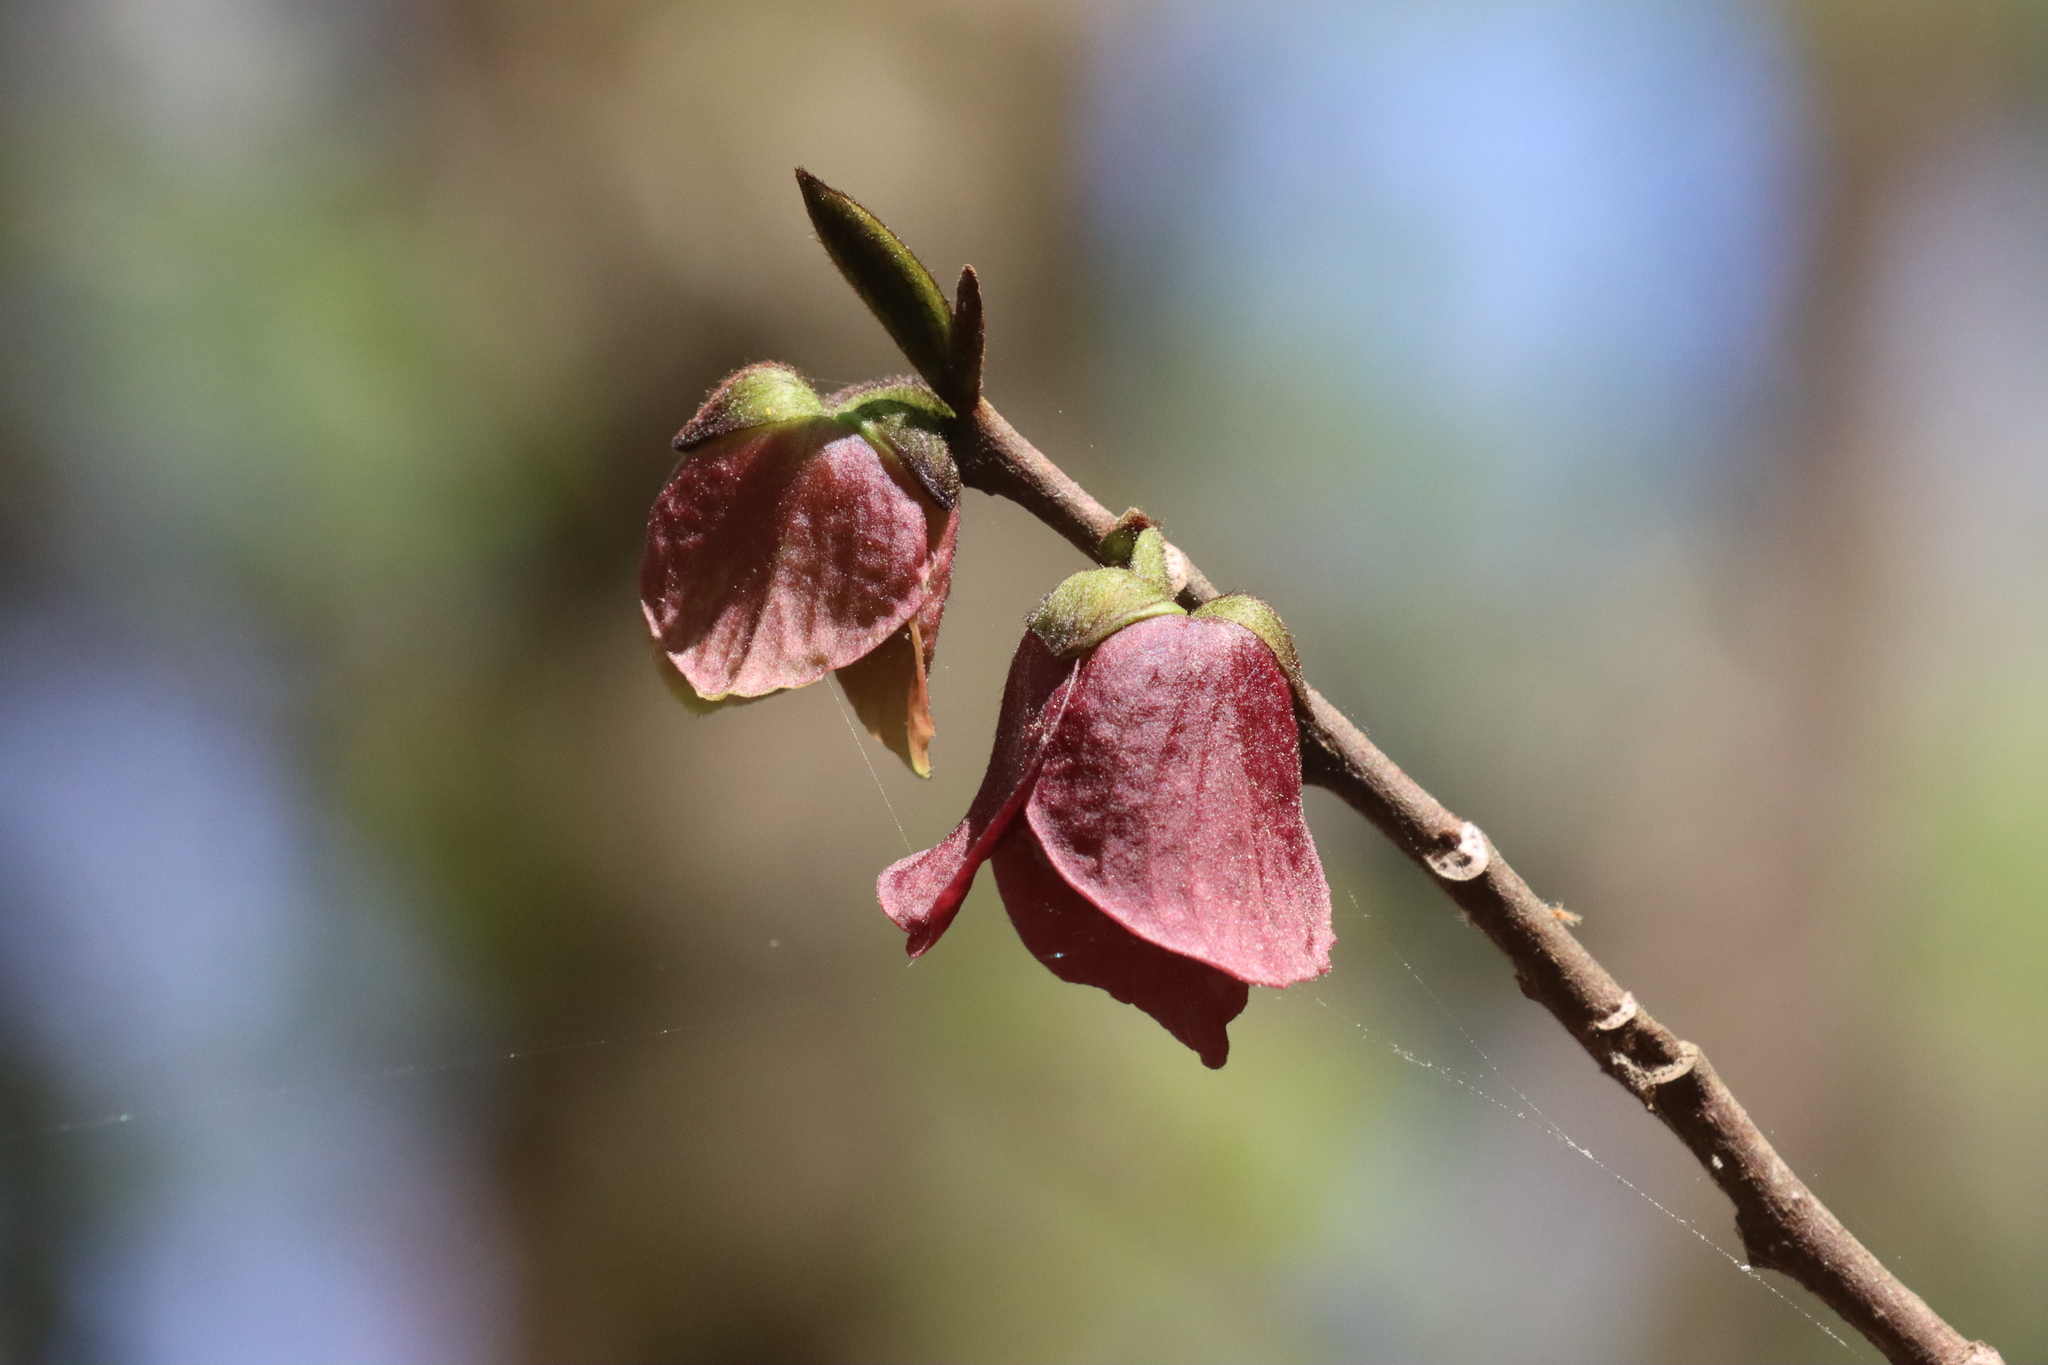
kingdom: Plantae
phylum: Tracheophyta
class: Magnoliopsida
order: Magnoliales
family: Annonaceae
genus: Asimina
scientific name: Asimina triloba
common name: Dog-banana
